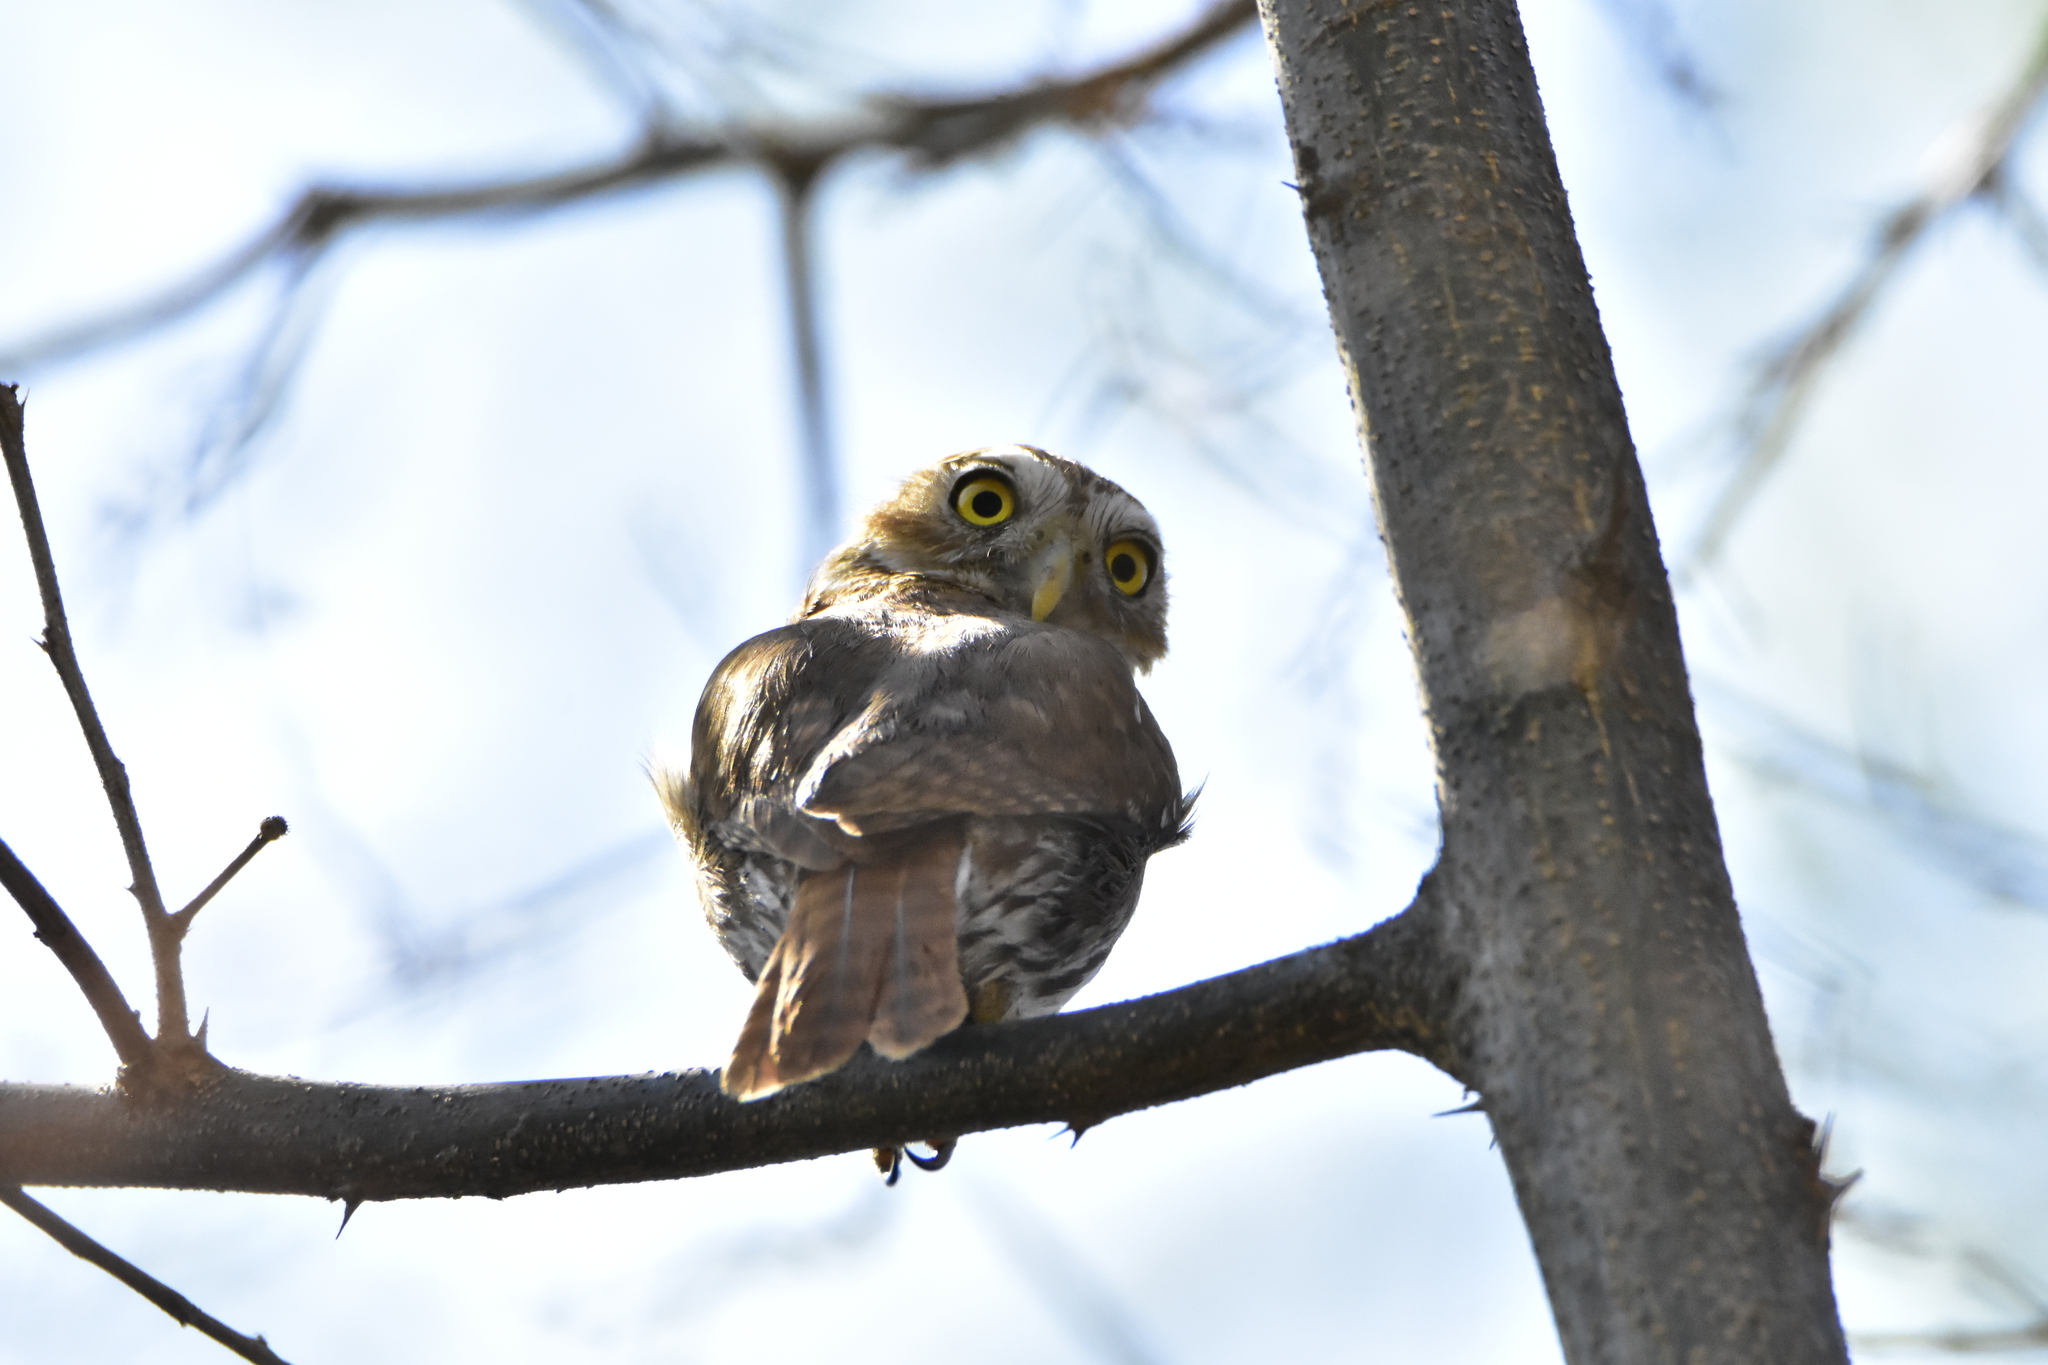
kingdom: Animalia
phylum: Chordata
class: Aves
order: Strigiformes
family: Strigidae
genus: Glaucidium
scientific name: Glaucidium brasilianum
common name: Ferruginous pygmy-owl
